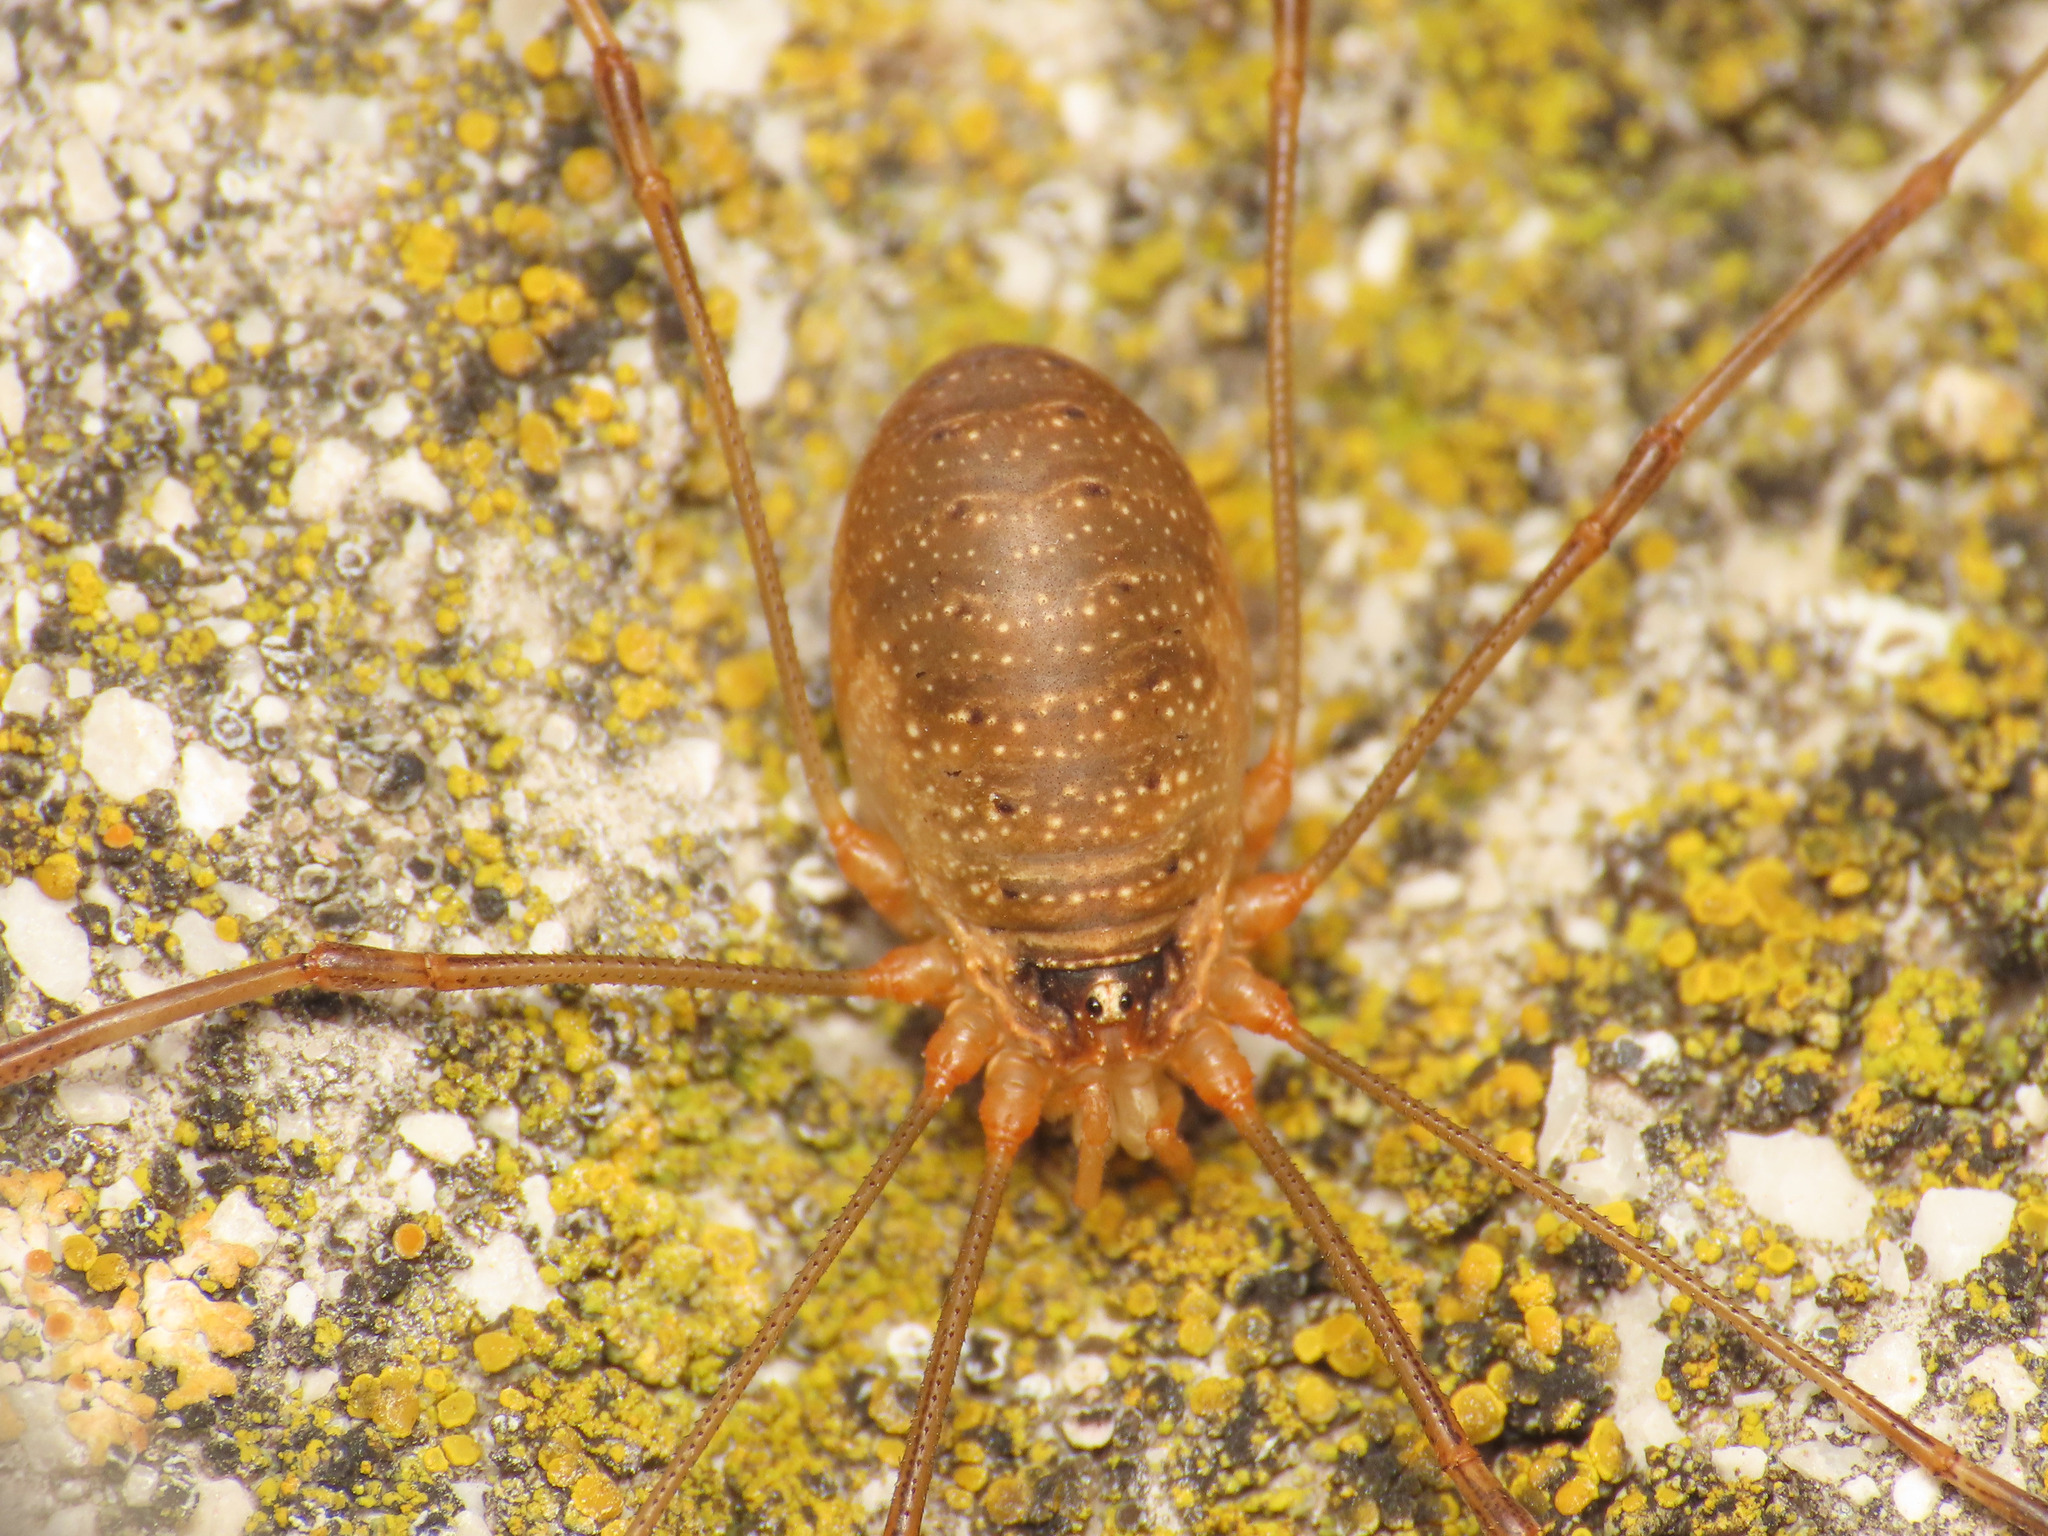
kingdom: Animalia
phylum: Arthropoda
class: Arachnida
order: Opiliones
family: Phalangiidae
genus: Opilio
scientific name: Opilio canestrinii
